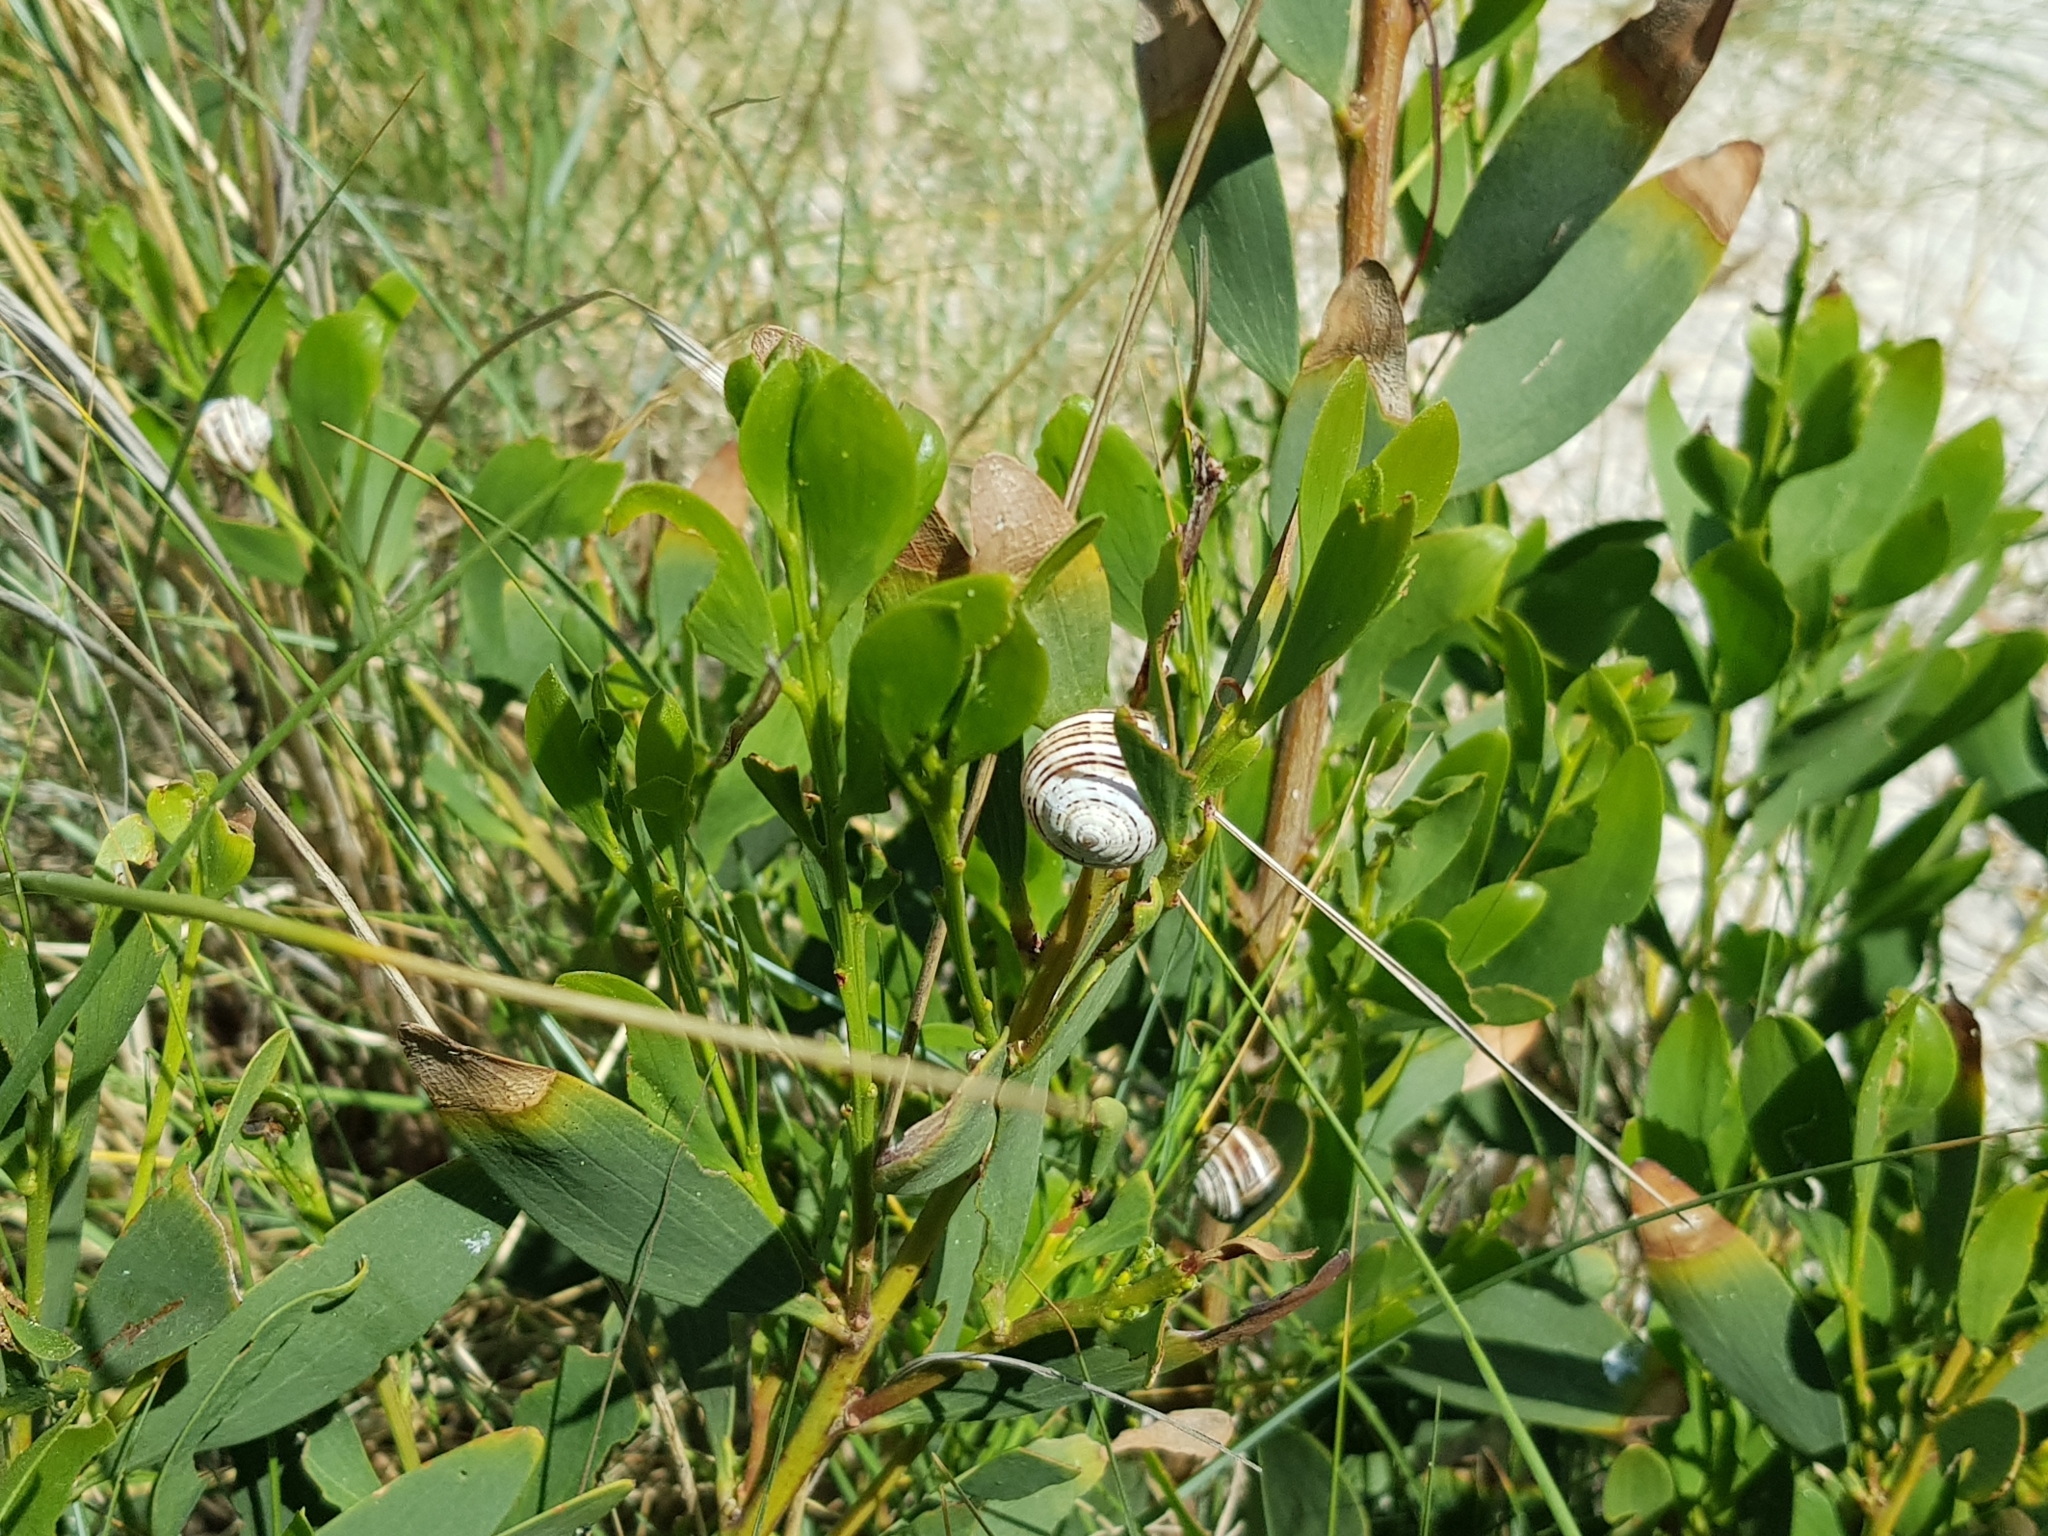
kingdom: Animalia
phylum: Mollusca
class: Gastropoda
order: Stylommatophora
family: Helicidae
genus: Theba
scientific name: Theba pisana
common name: White snail
